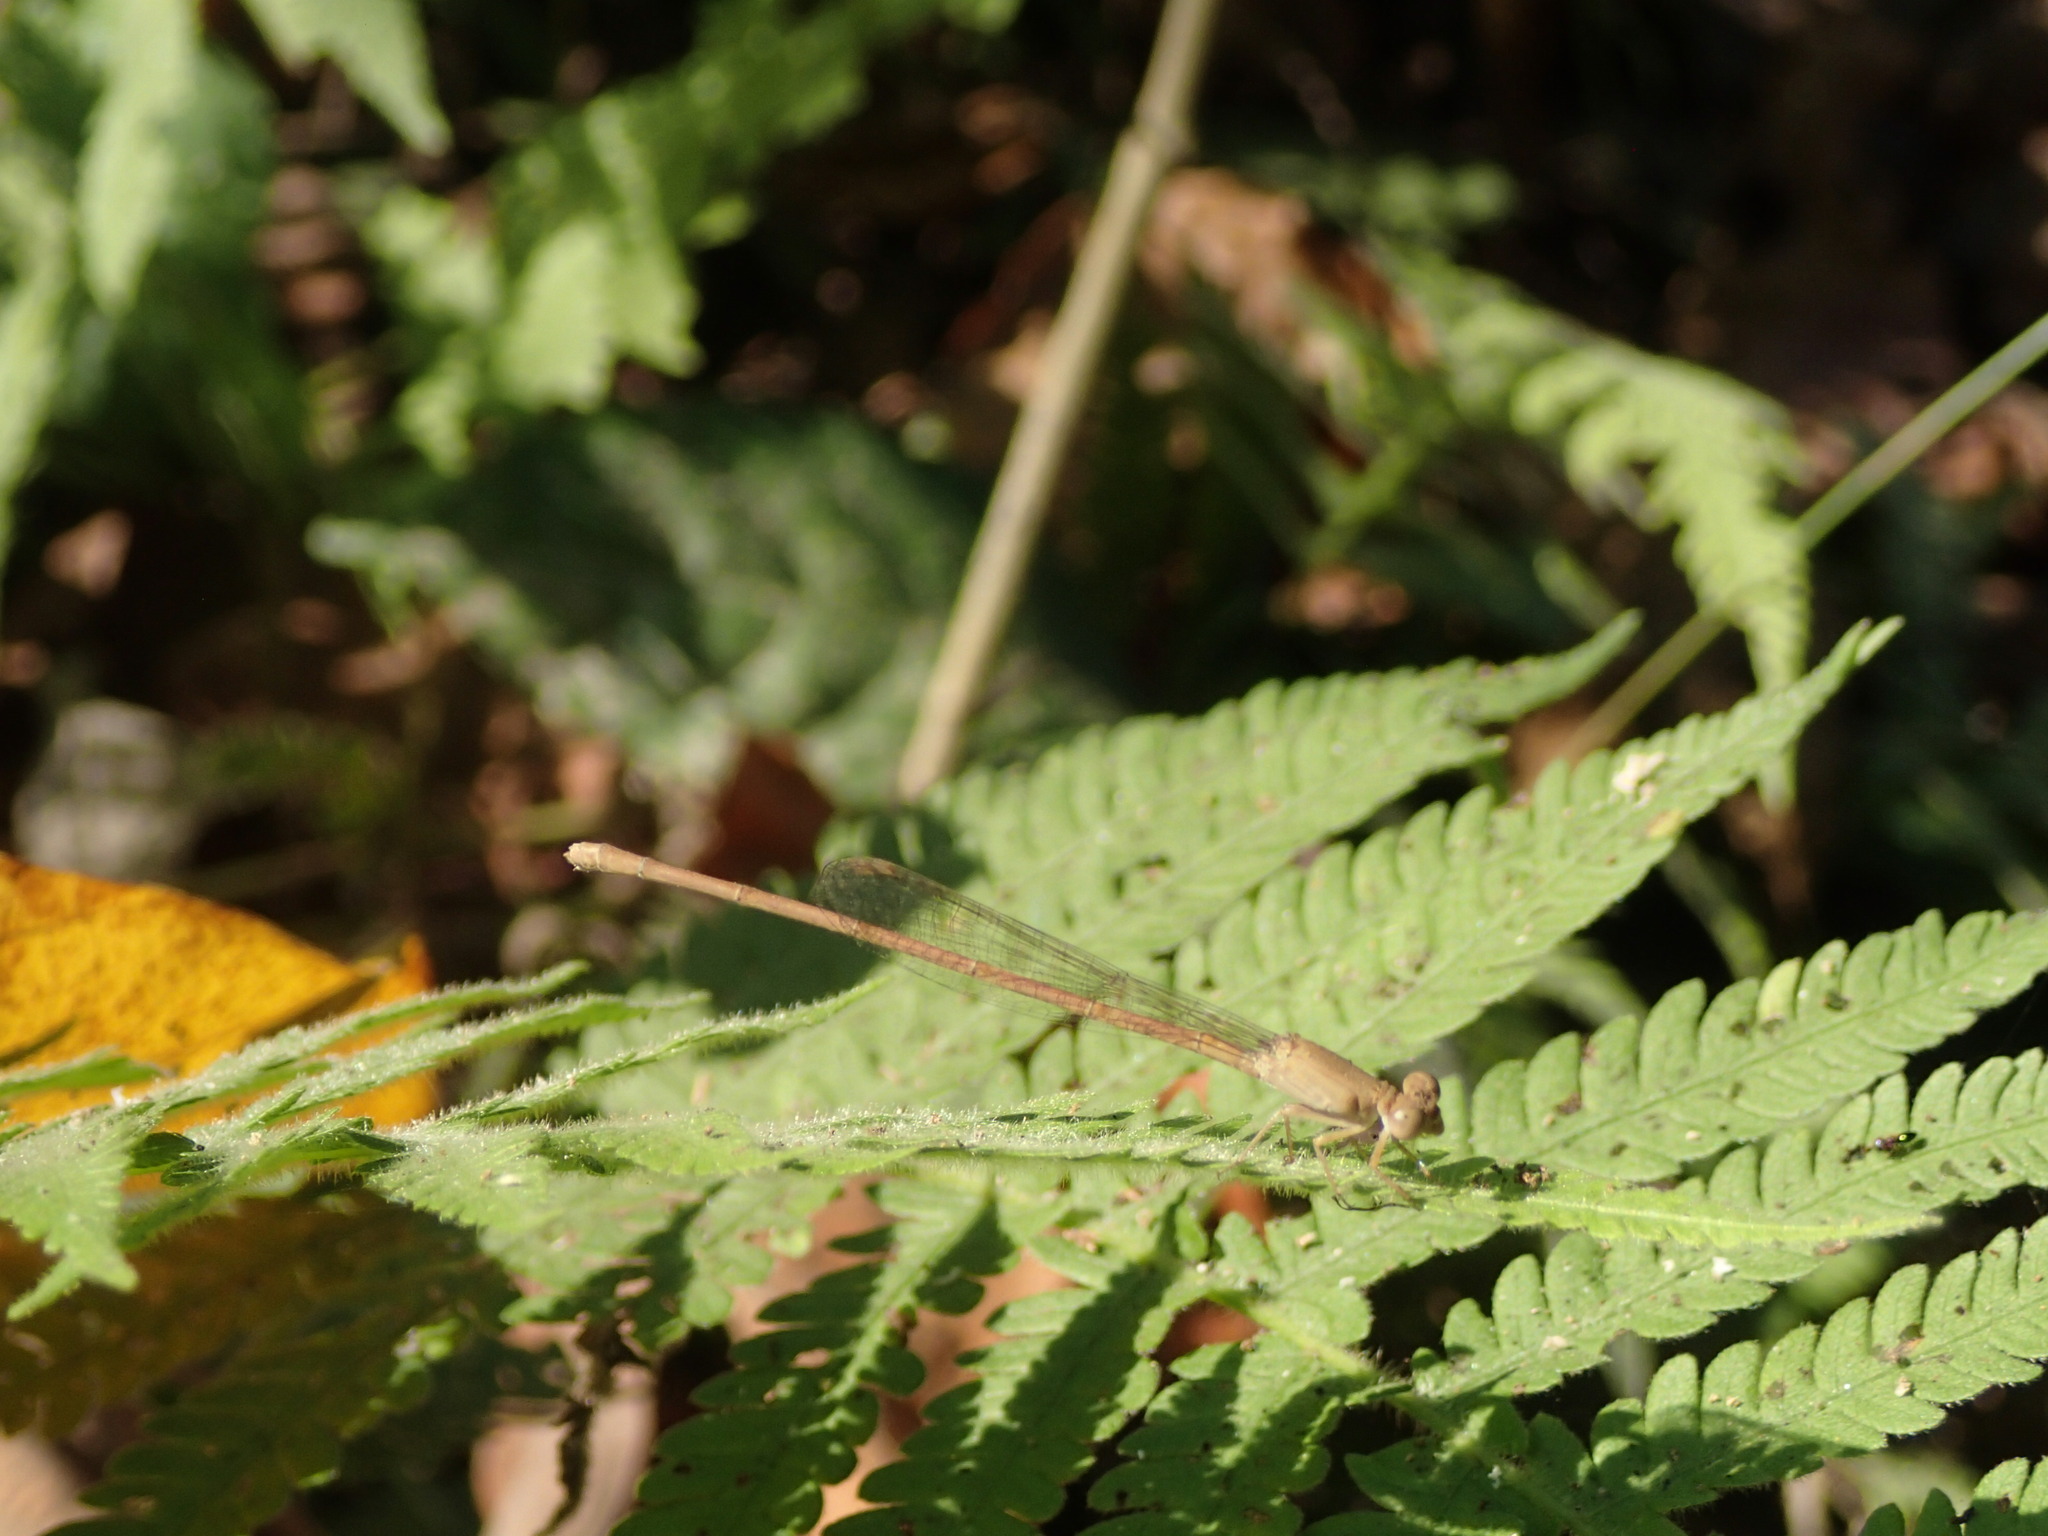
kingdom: Animalia
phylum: Arthropoda
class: Insecta
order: Odonata
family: Coenagrionidae
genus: Ceriagrion
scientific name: Ceriagrion olivaceum
